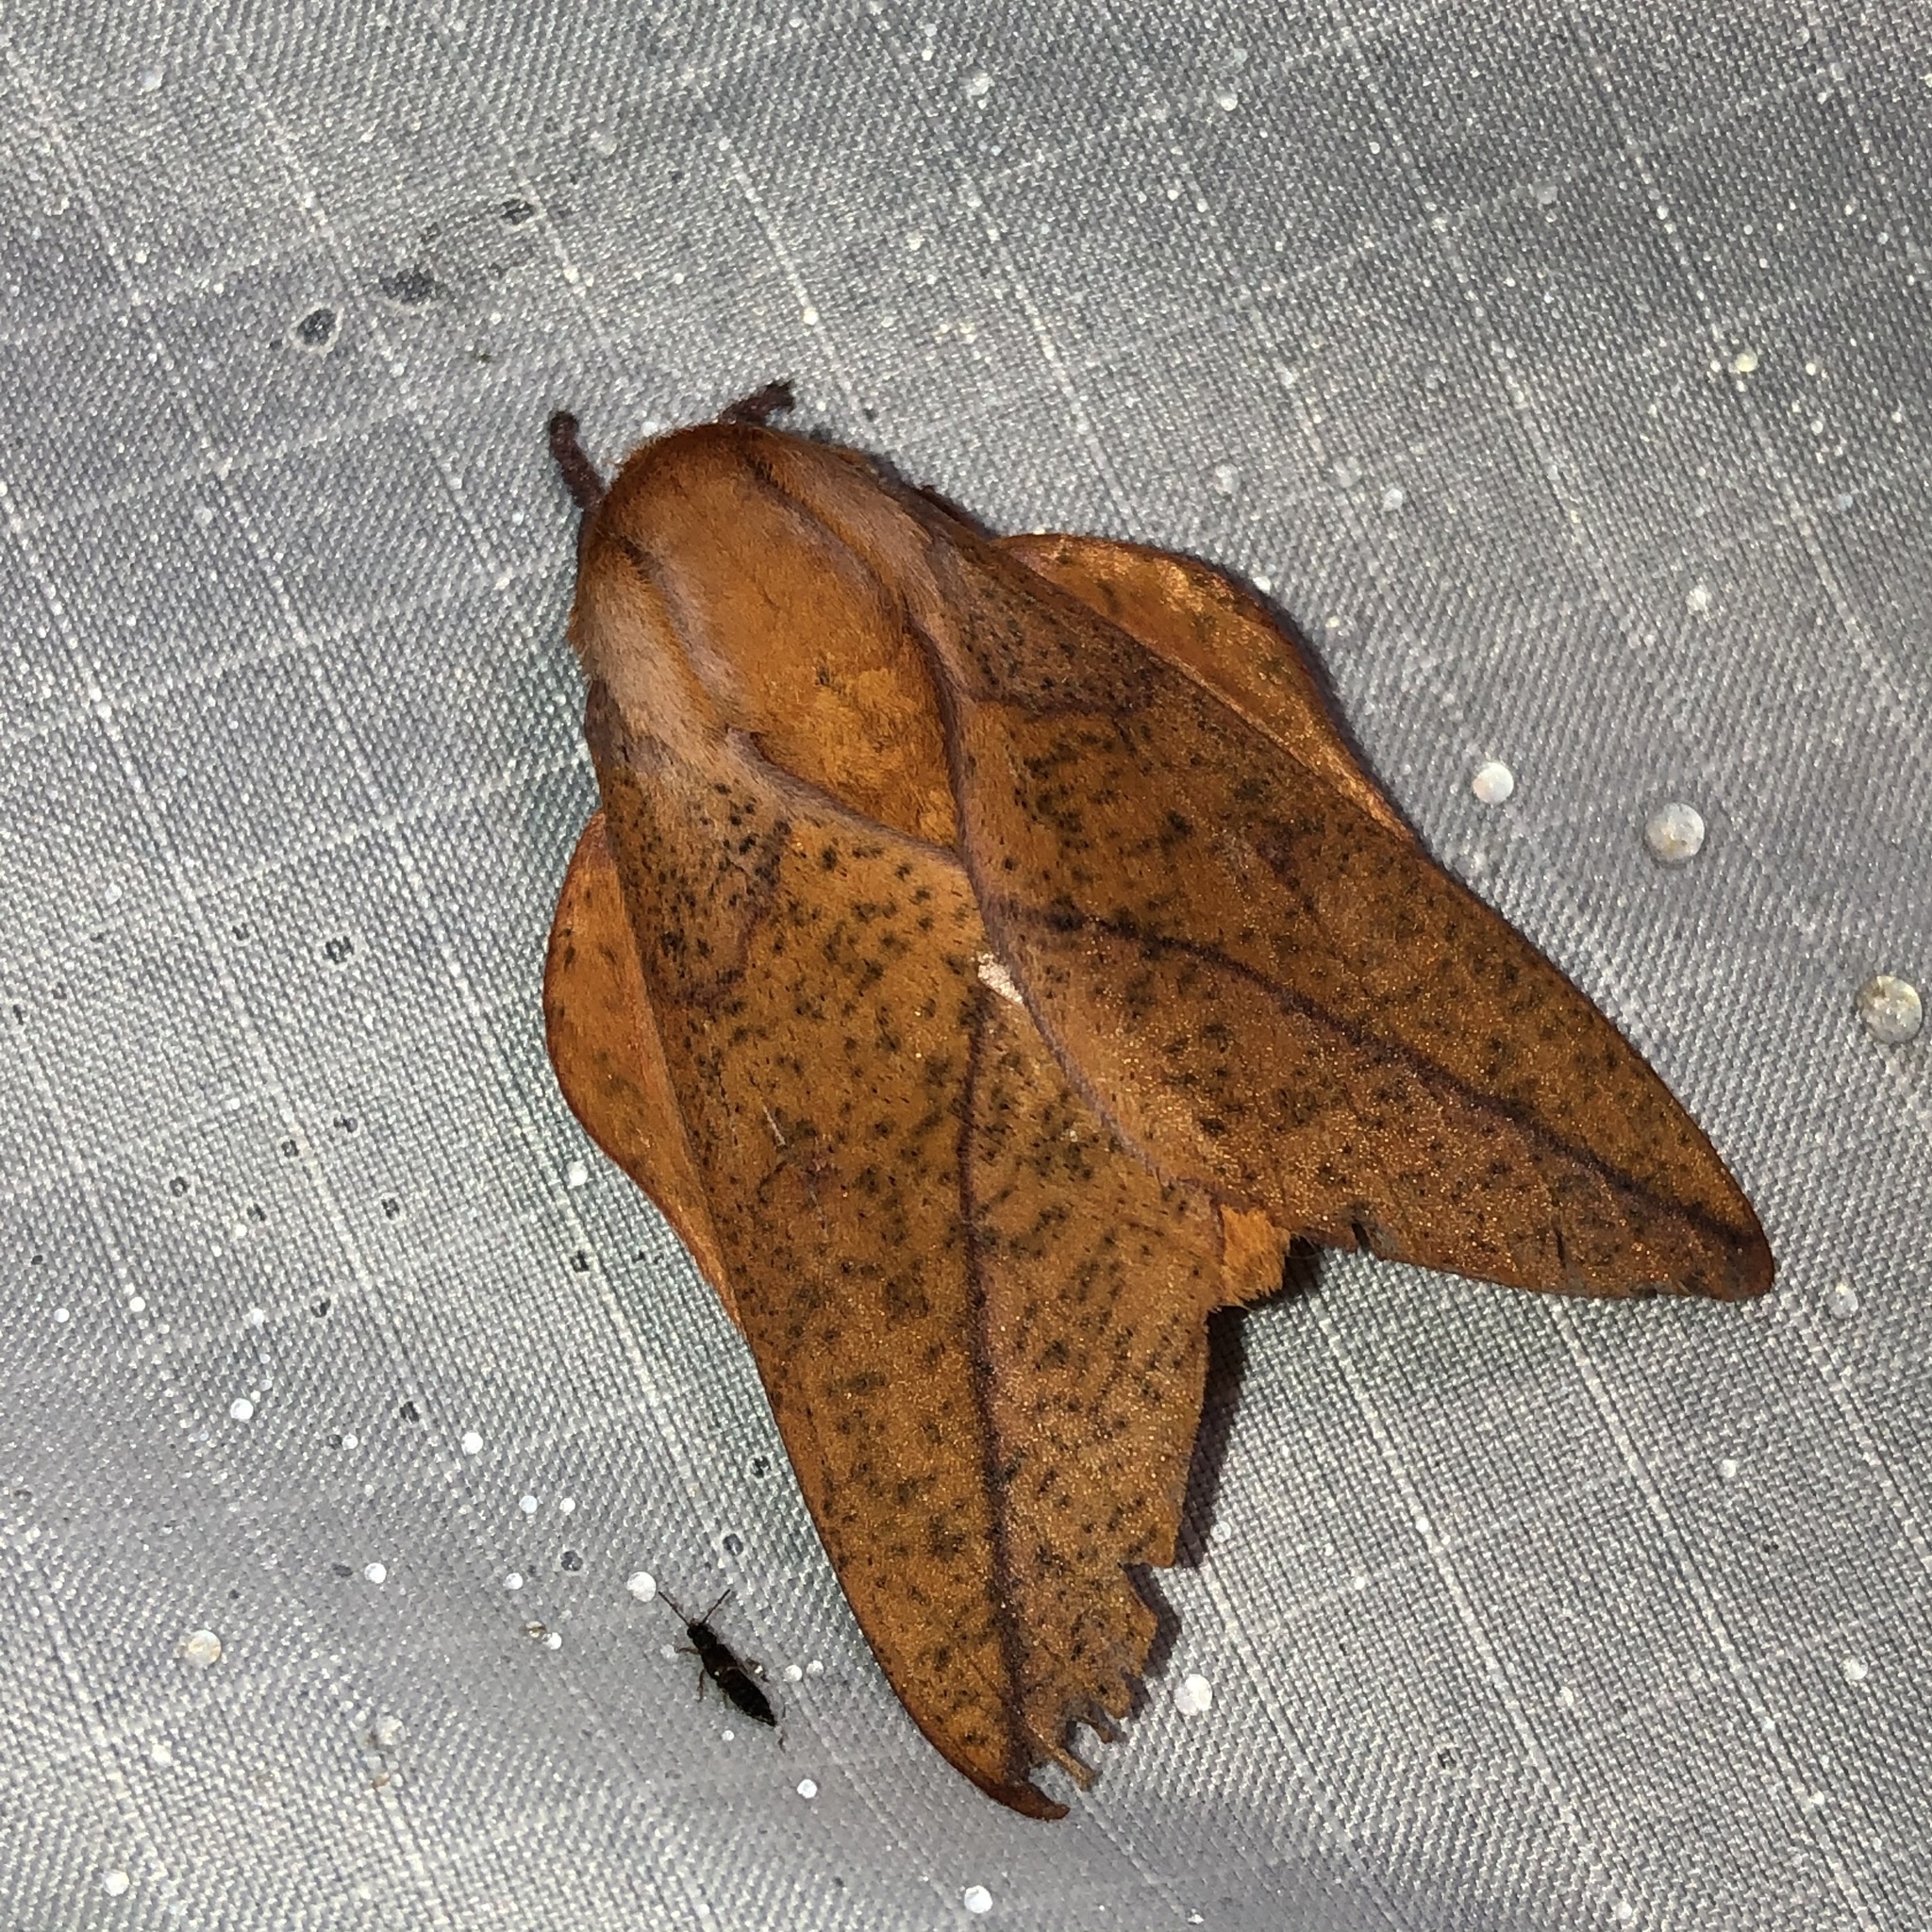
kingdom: Animalia
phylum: Arthropoda
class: Insecta
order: Lepidoptera
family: Saturniidae
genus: Syssphinx
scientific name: Syssphinx bisecta
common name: Bisected honey locust moth
